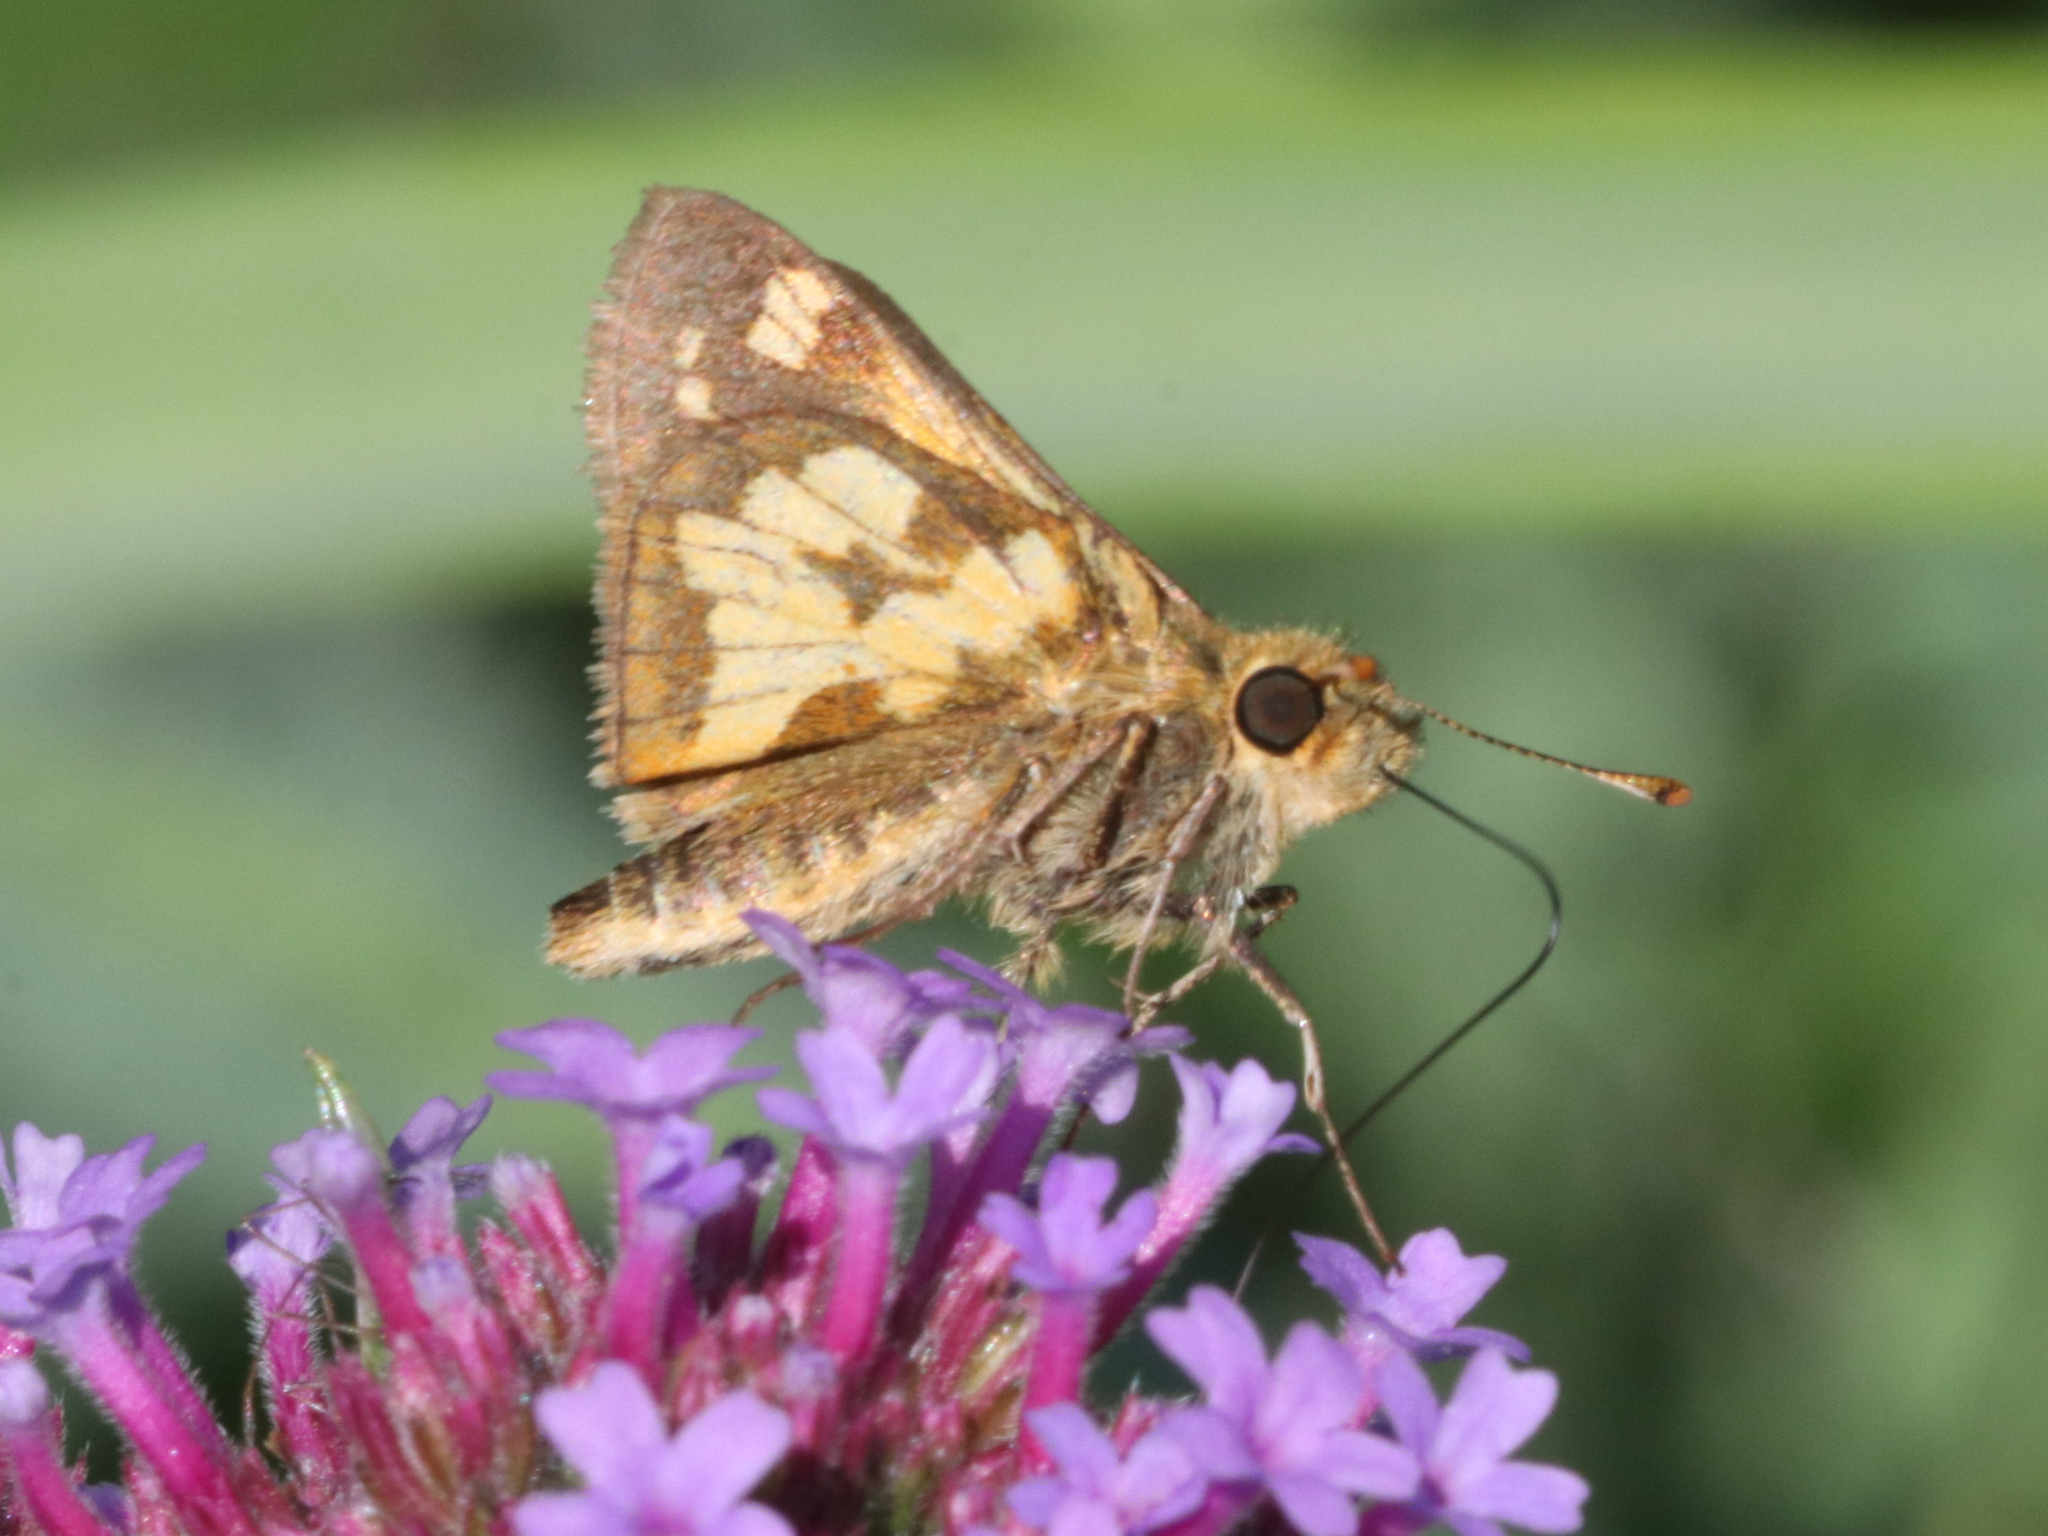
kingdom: Animalia
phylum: Arthropoda
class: Insecta
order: Lepidoptera
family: Hesperiidae
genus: Polites
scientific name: Polites coras
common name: Peck's skipper
